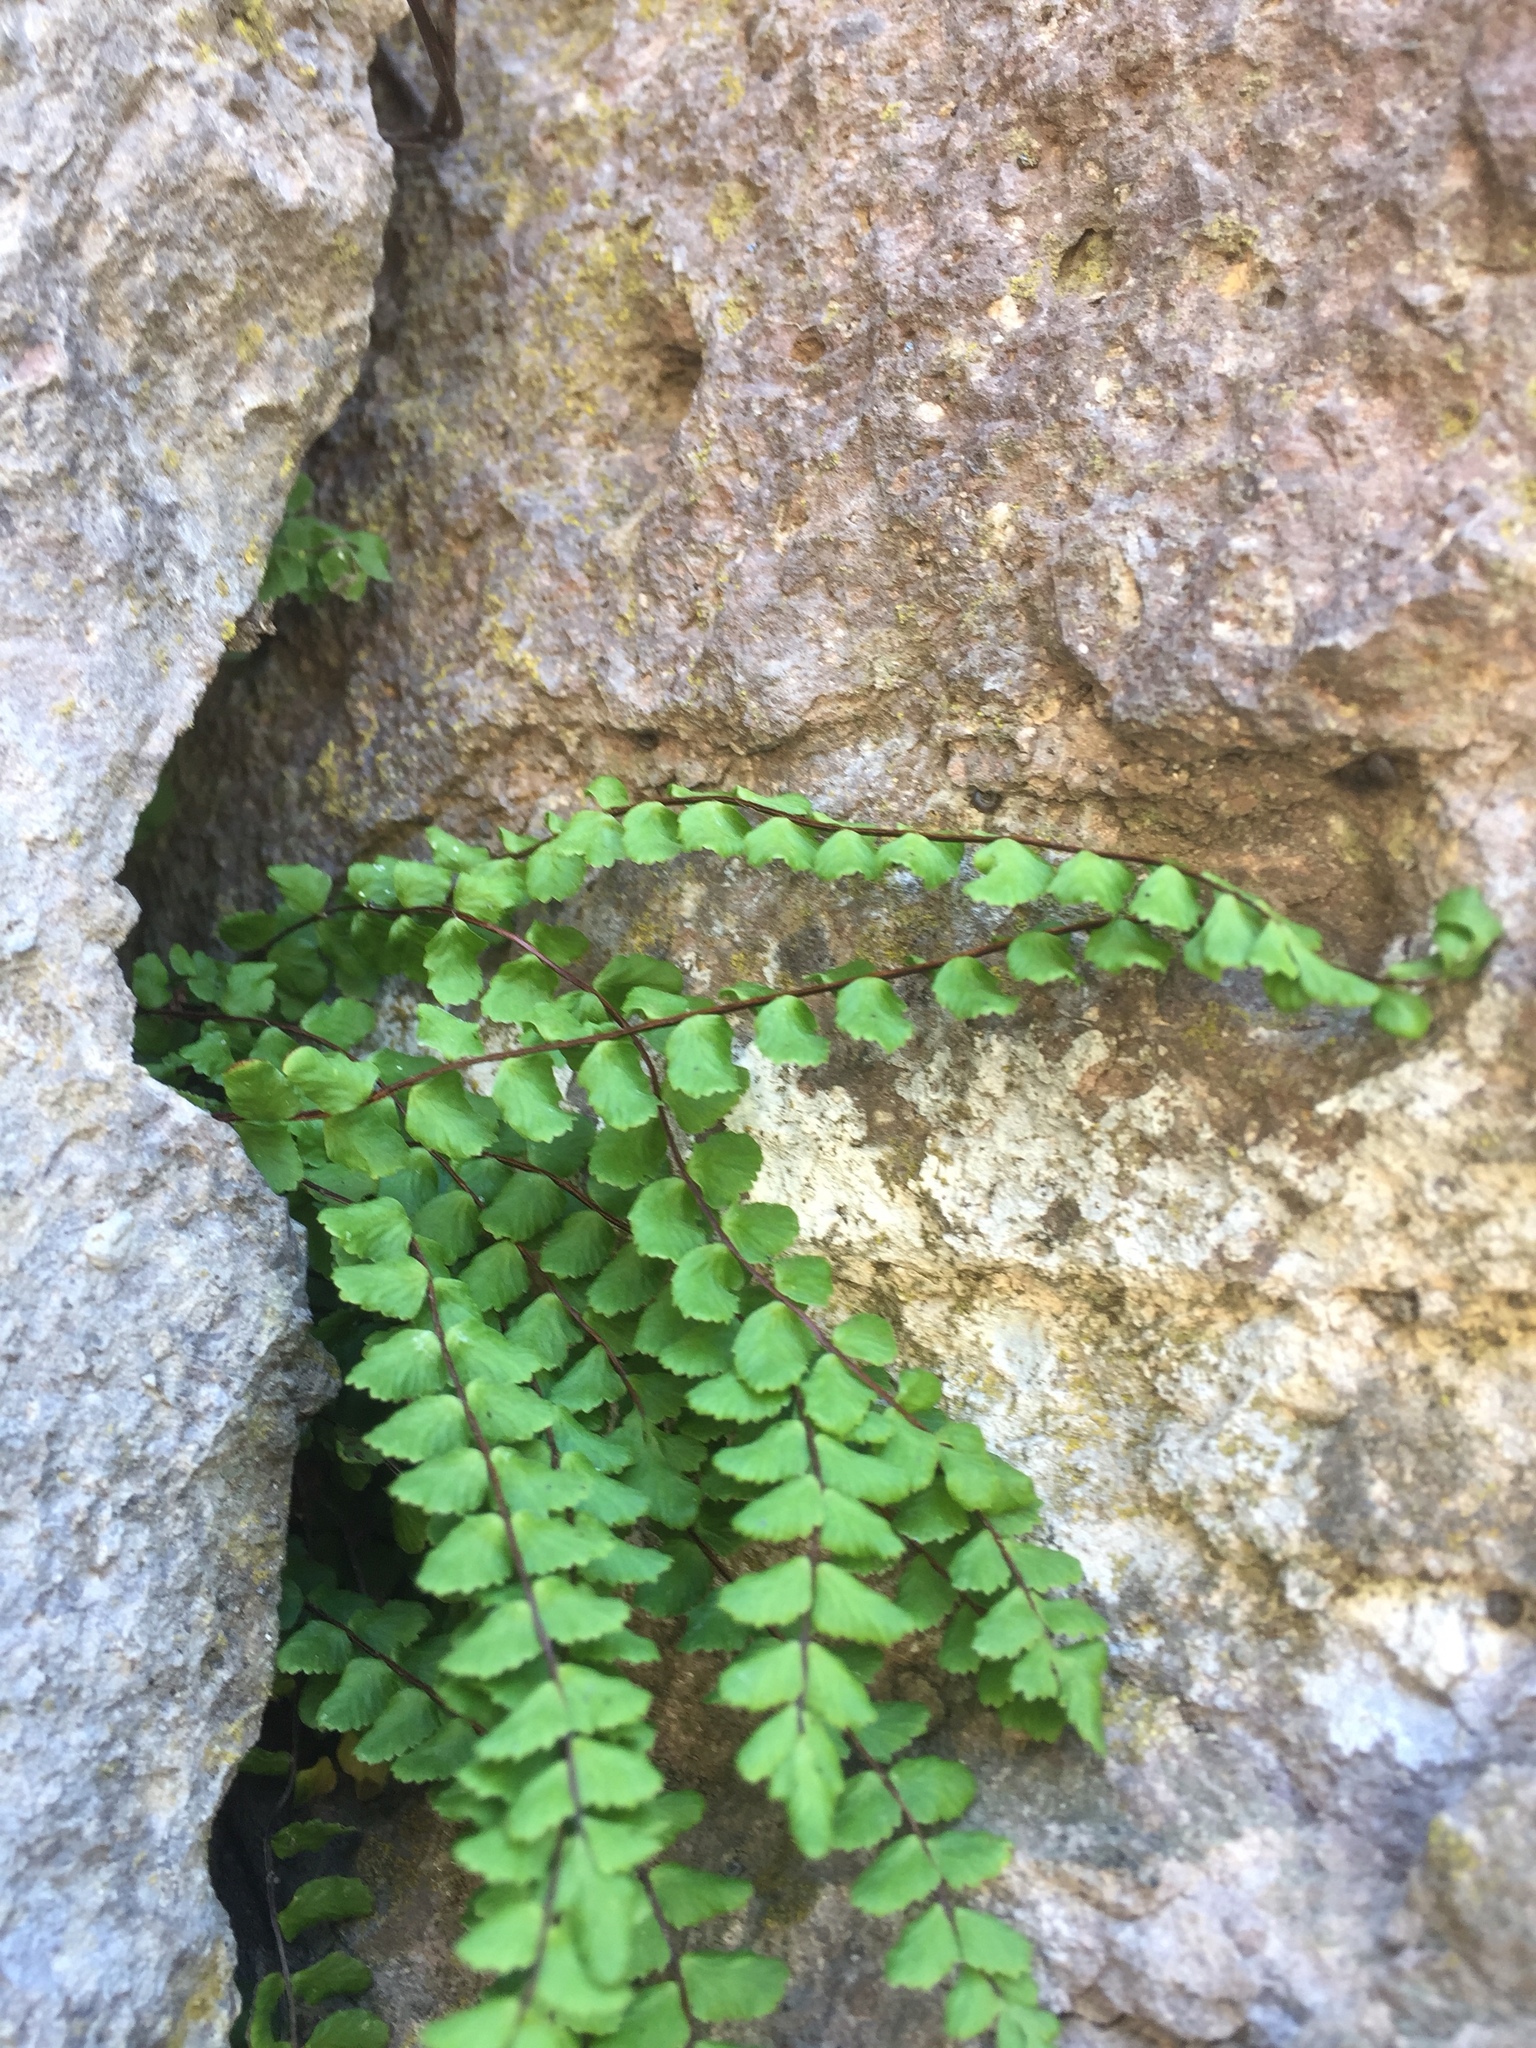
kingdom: Plantae
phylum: Tracheophyta
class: Polypodiopsida
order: Polypodiales
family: Aspleniaceae
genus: Asplenium
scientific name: Asplenium trichomanes
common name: Maidenhair spleenwort
